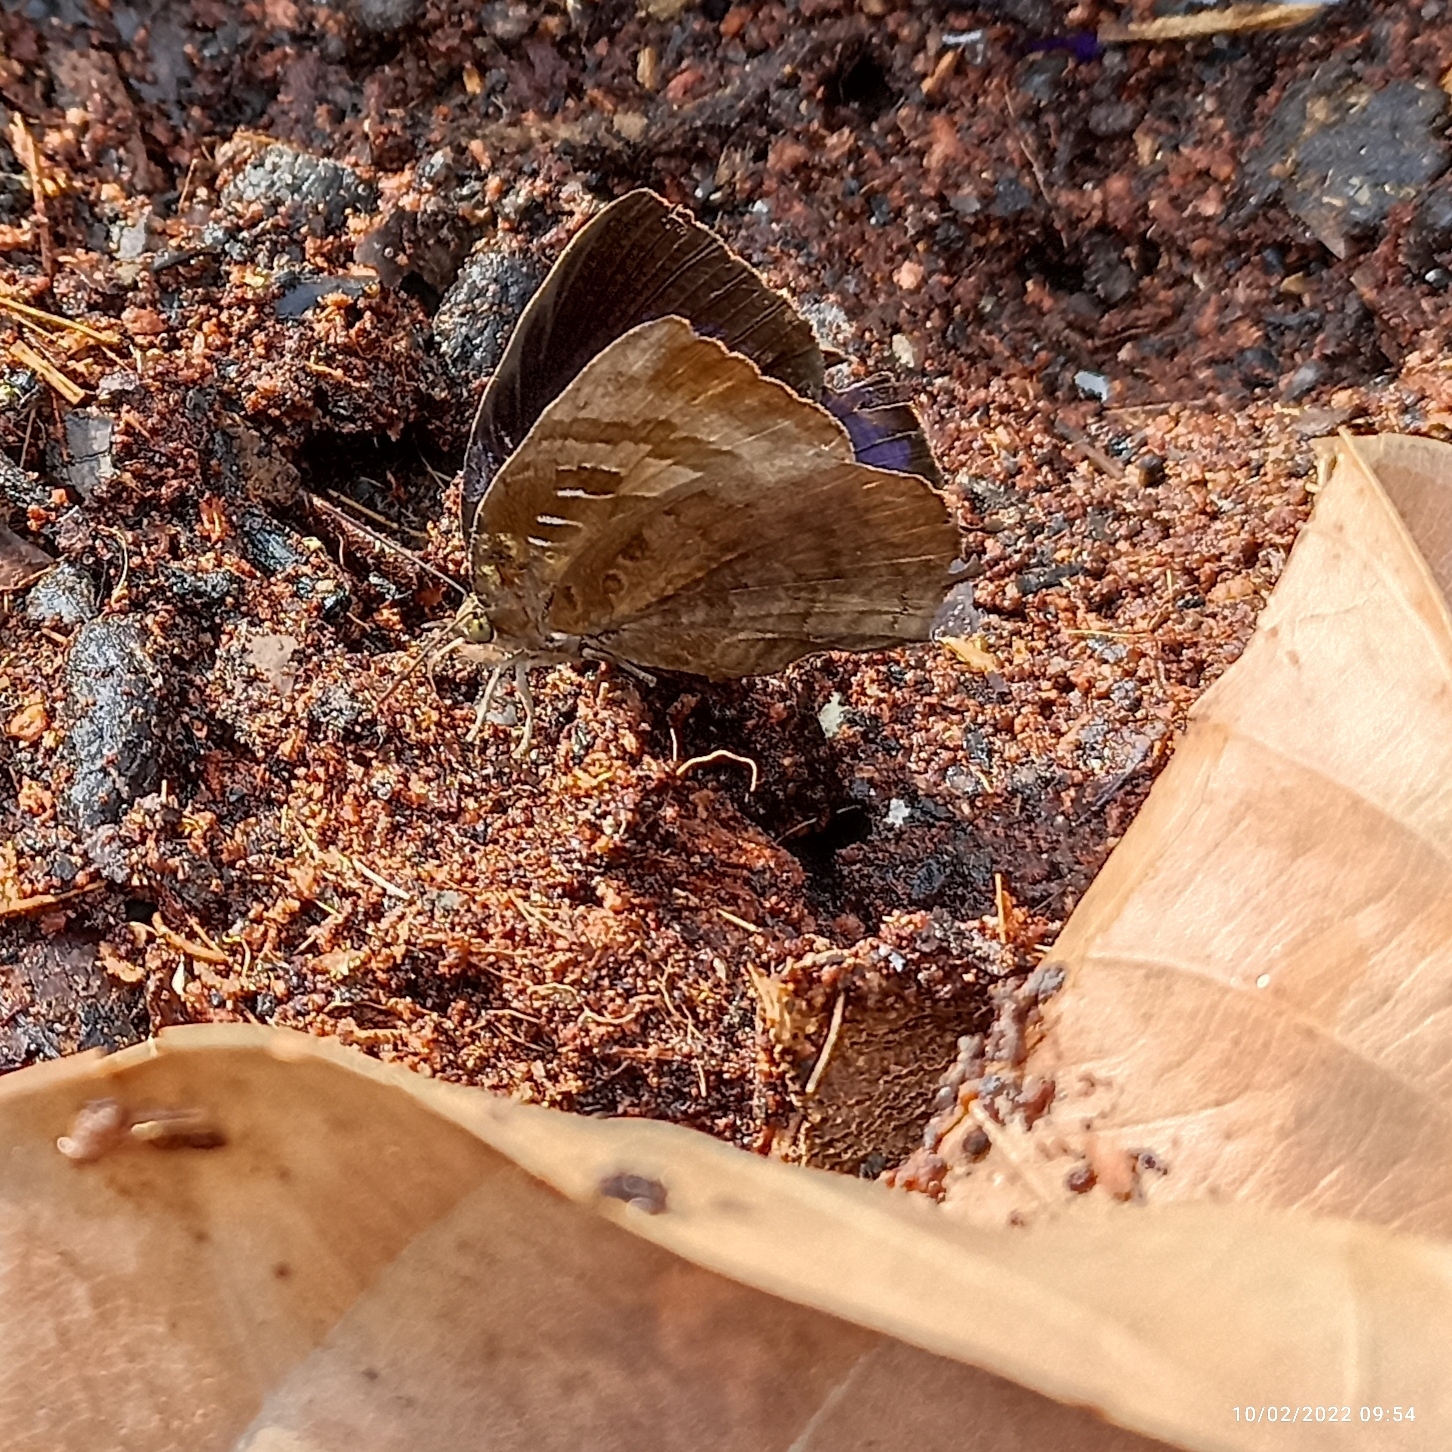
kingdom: Animalia
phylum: Arthropoda
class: Insecta
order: Lepidoptera
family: Lycaenidae
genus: Arhopala
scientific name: Arhopala centaurus
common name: Dull oak-blue
